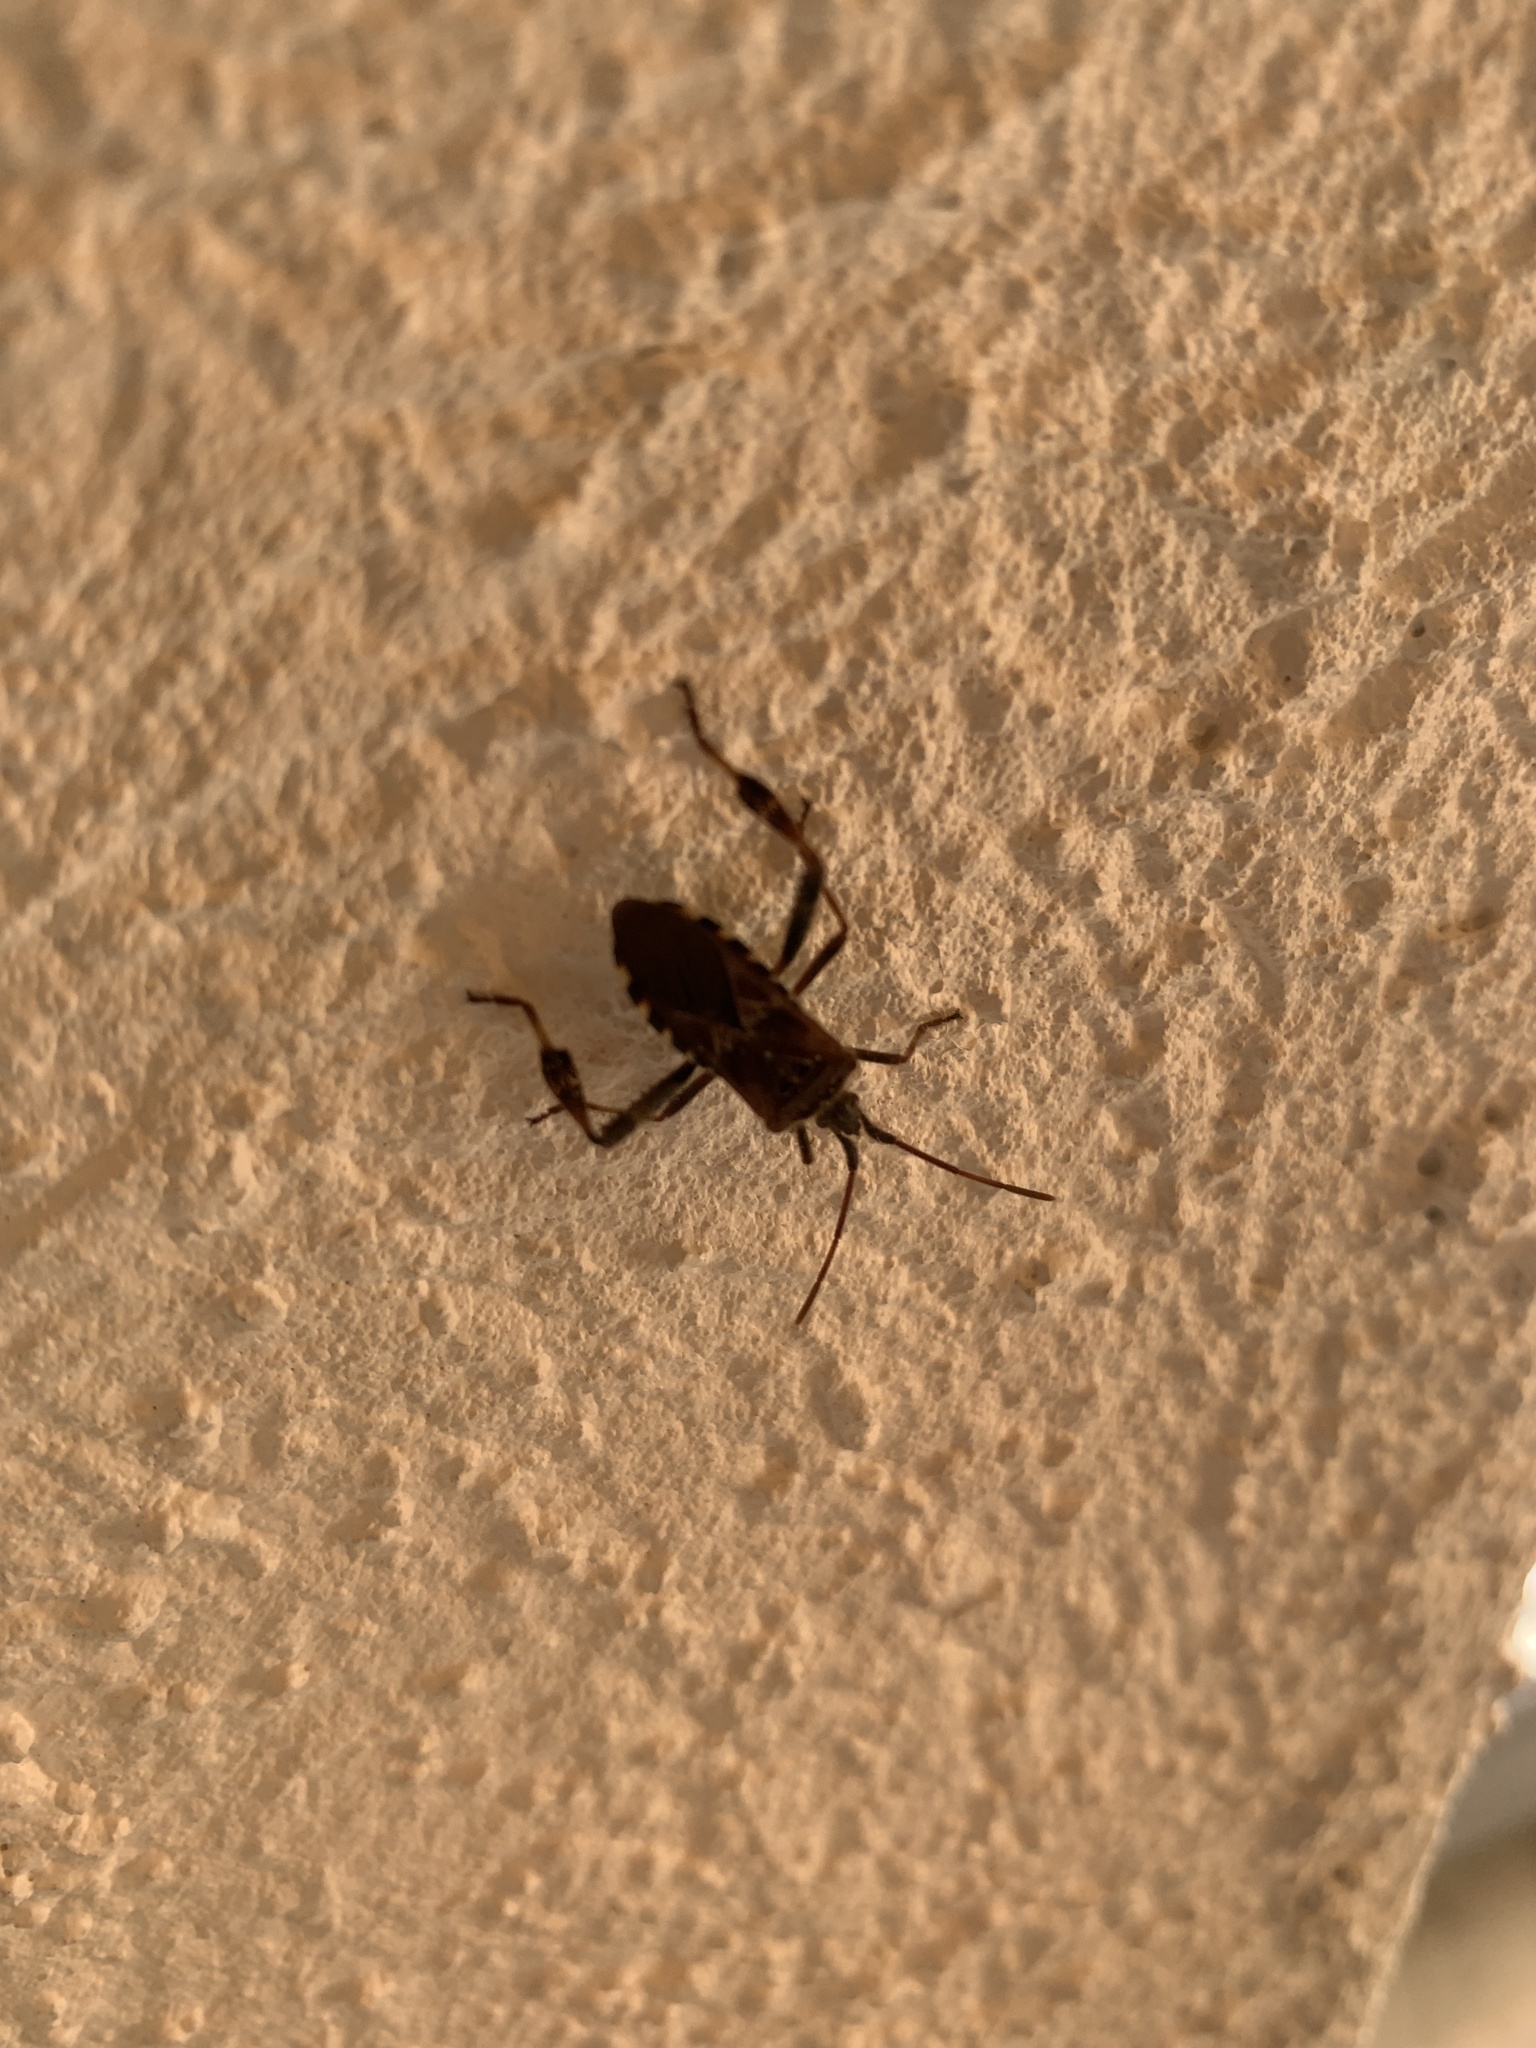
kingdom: Animalia
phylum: Arthropoda
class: Insecta
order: Hemiptera
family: Coreidae
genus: Leptoglossus
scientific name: Leptoglossus occidentalis
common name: Western conifer-seed bug
